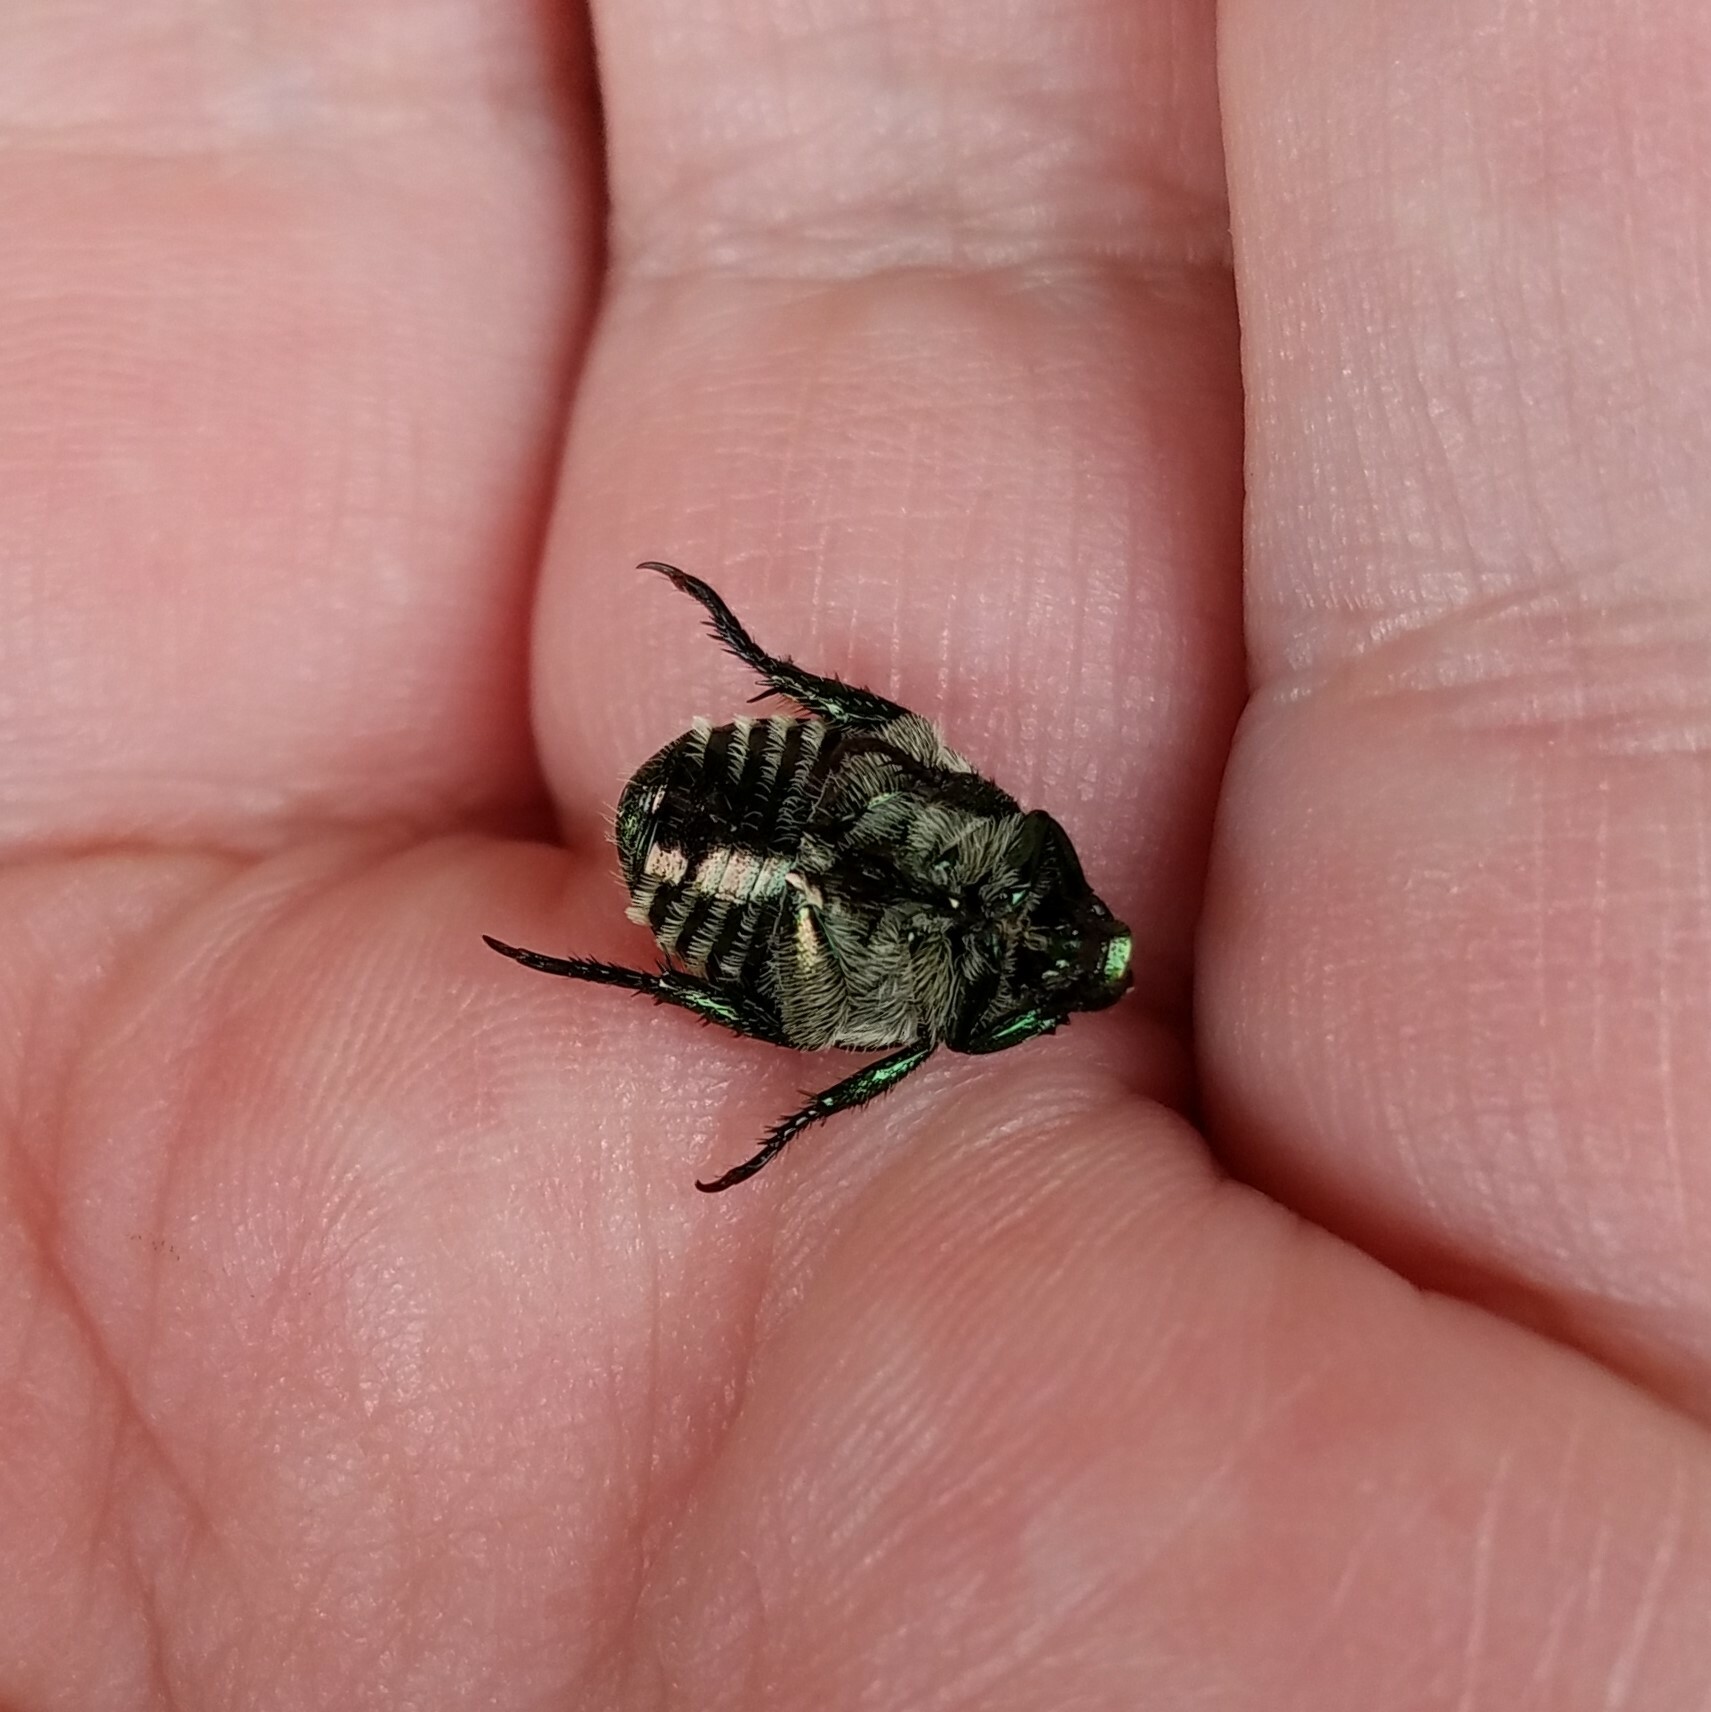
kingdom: Animalia
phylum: Arthropoda
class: Insecta
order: Coleoptera
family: Scarabaeidae
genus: Popillia
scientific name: Popillia japonica
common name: Japanese beetle
